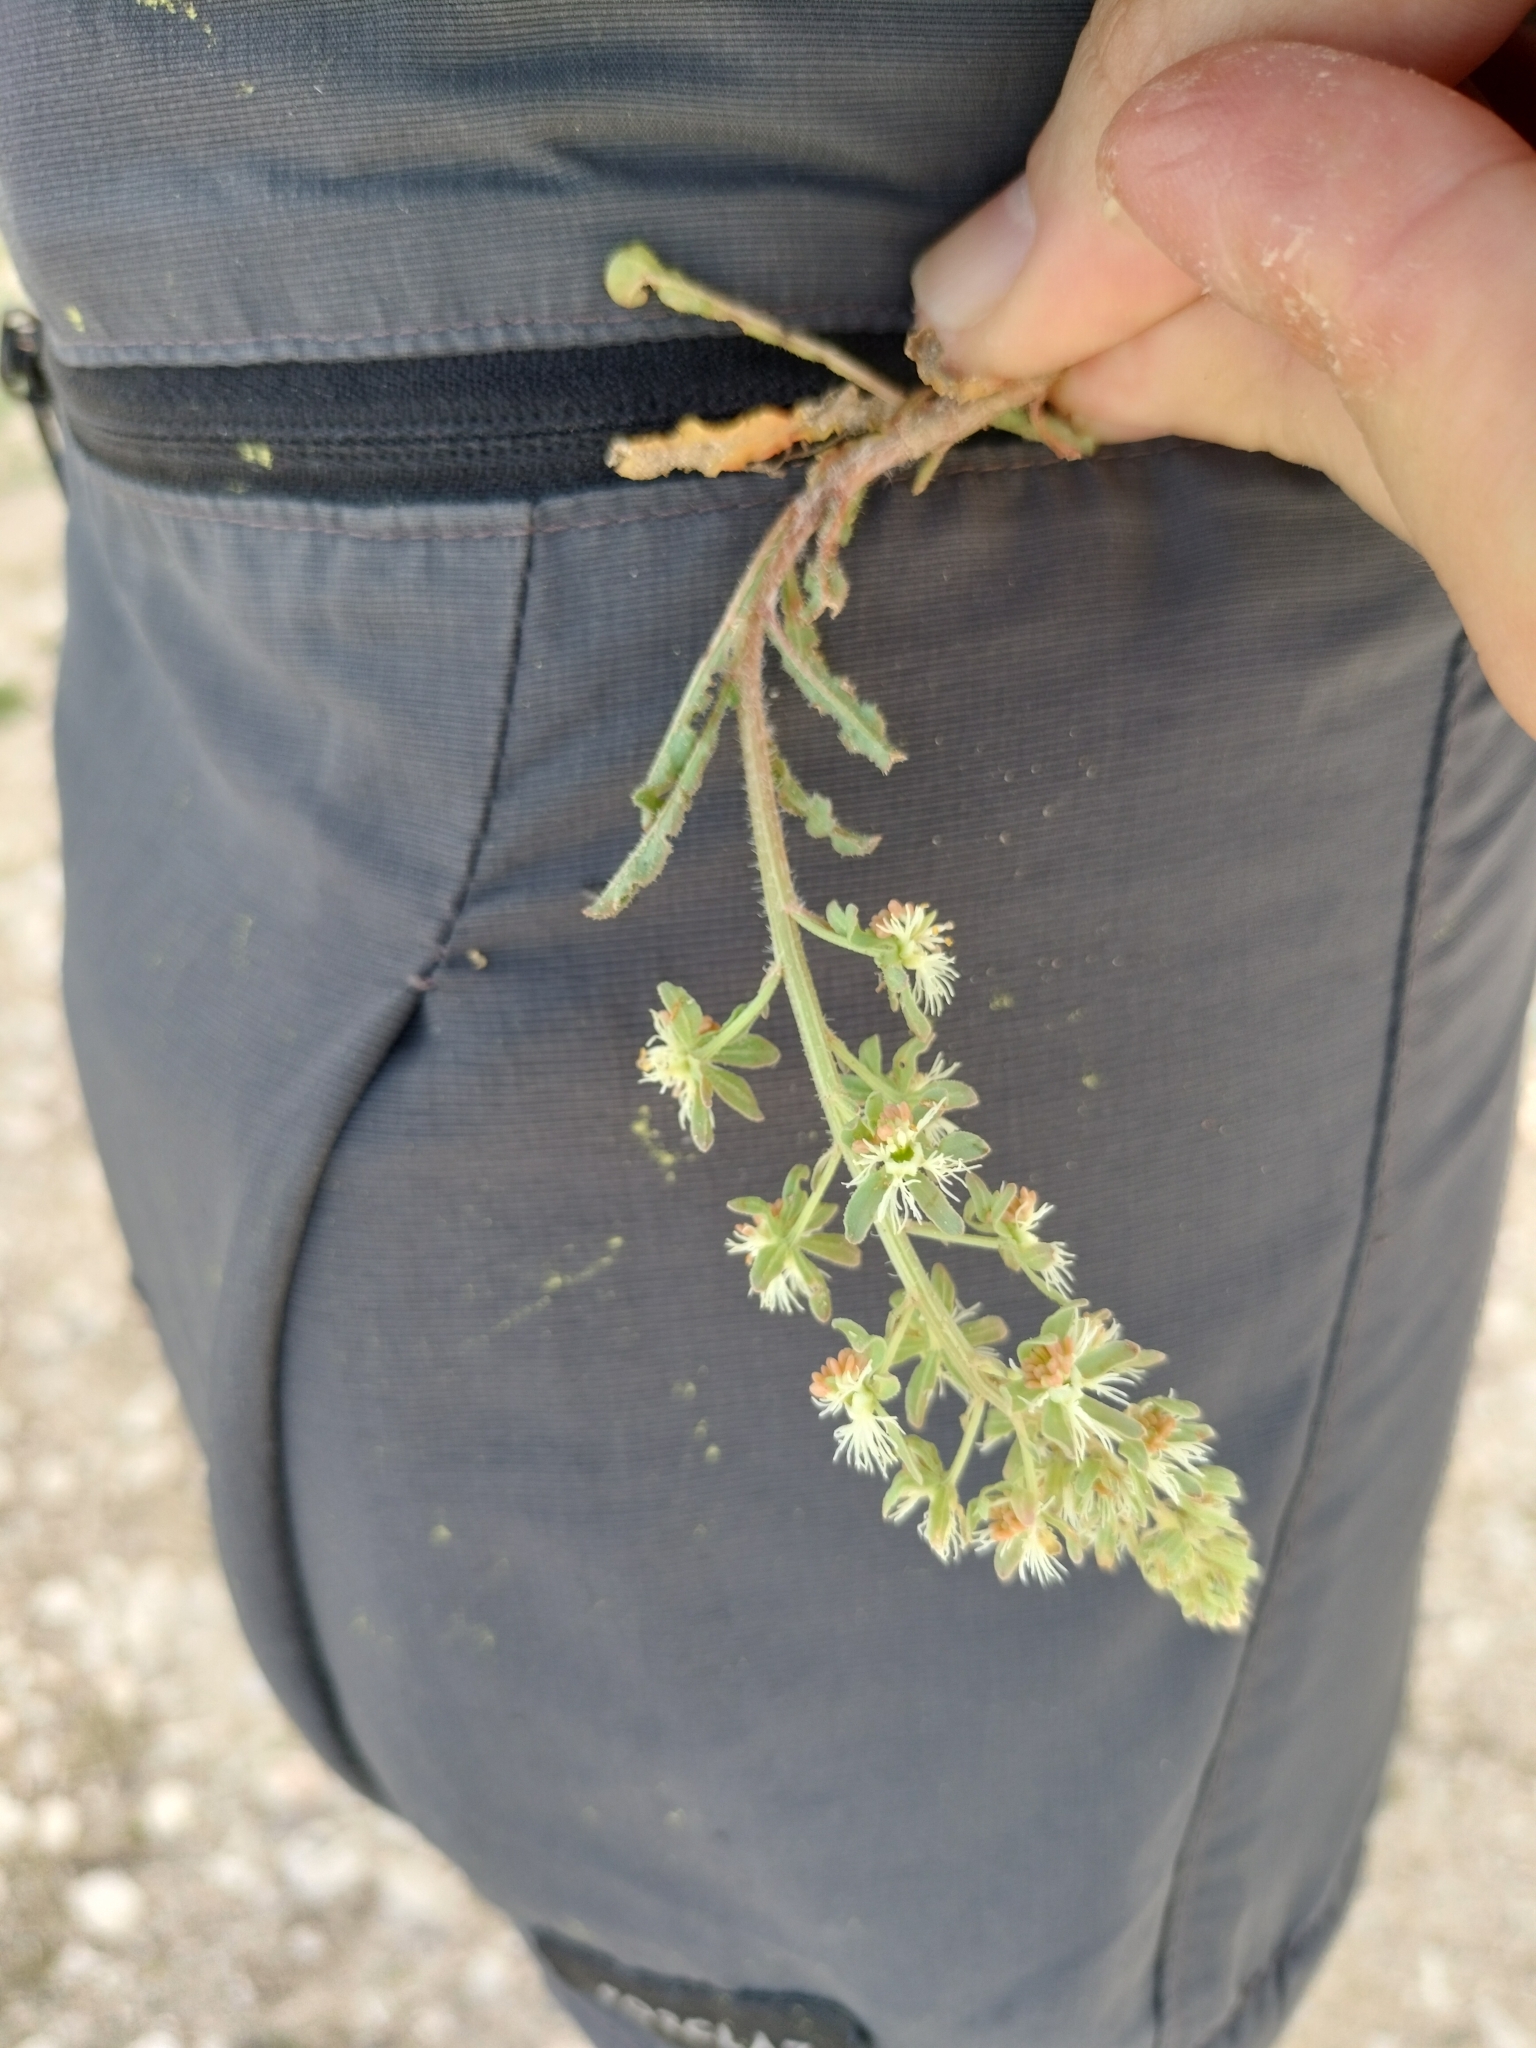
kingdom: Plantae
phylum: Tracheophyta
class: Magnoliopsida
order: Brassicales
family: Resedaceae
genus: Reseda
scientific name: Reseda phyteuma
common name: Corn mignonette
